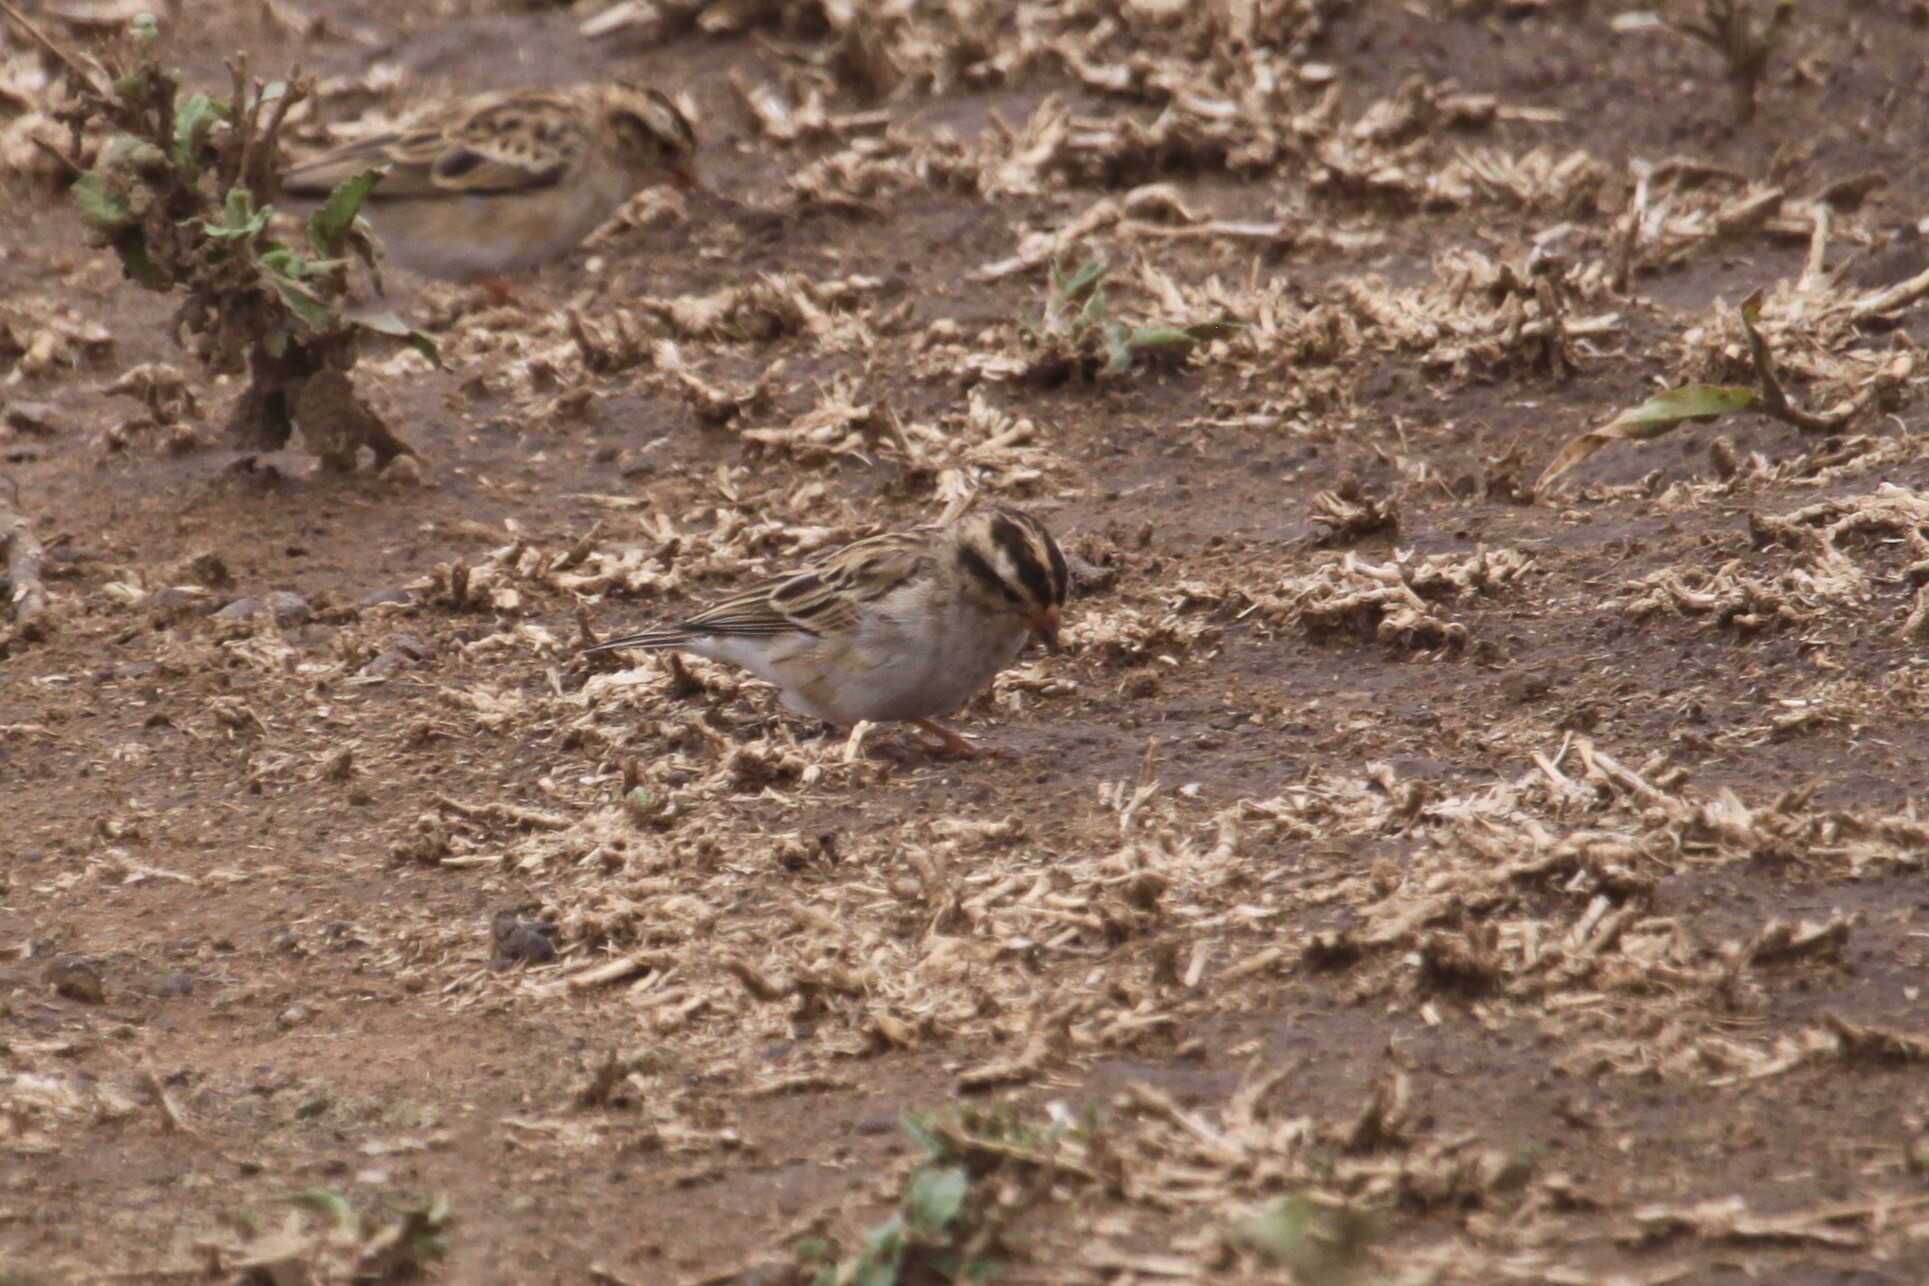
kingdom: Animalia
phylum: Chordata
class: Aves
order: Passeriformes
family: Viduidae
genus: Vidua
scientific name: Vidua chalybeata
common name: Village indigobird
